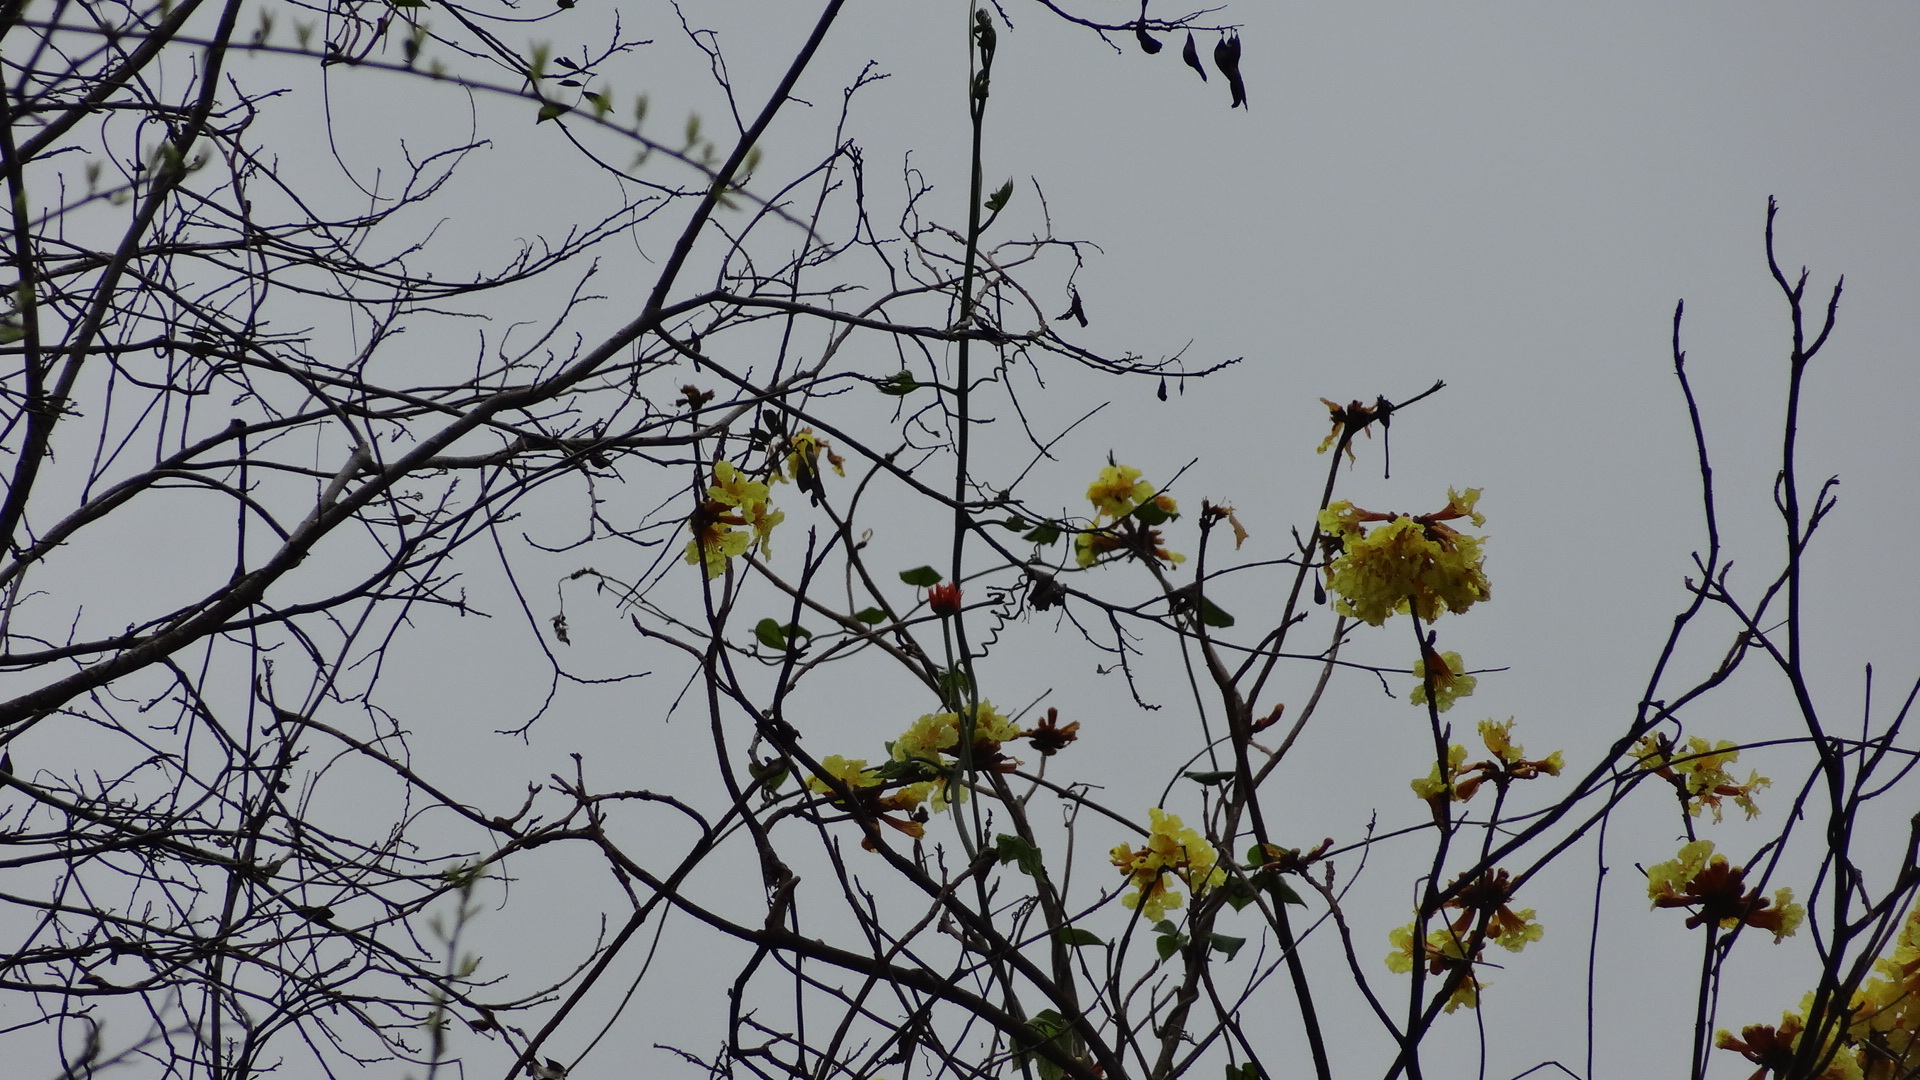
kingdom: Plantae
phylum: Tracheophyta
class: Magnoliopsida
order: Lamiales
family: Bignoniaceae
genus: Handroanthus
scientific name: Handroanthus chrysanthus
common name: Trumpet trees
